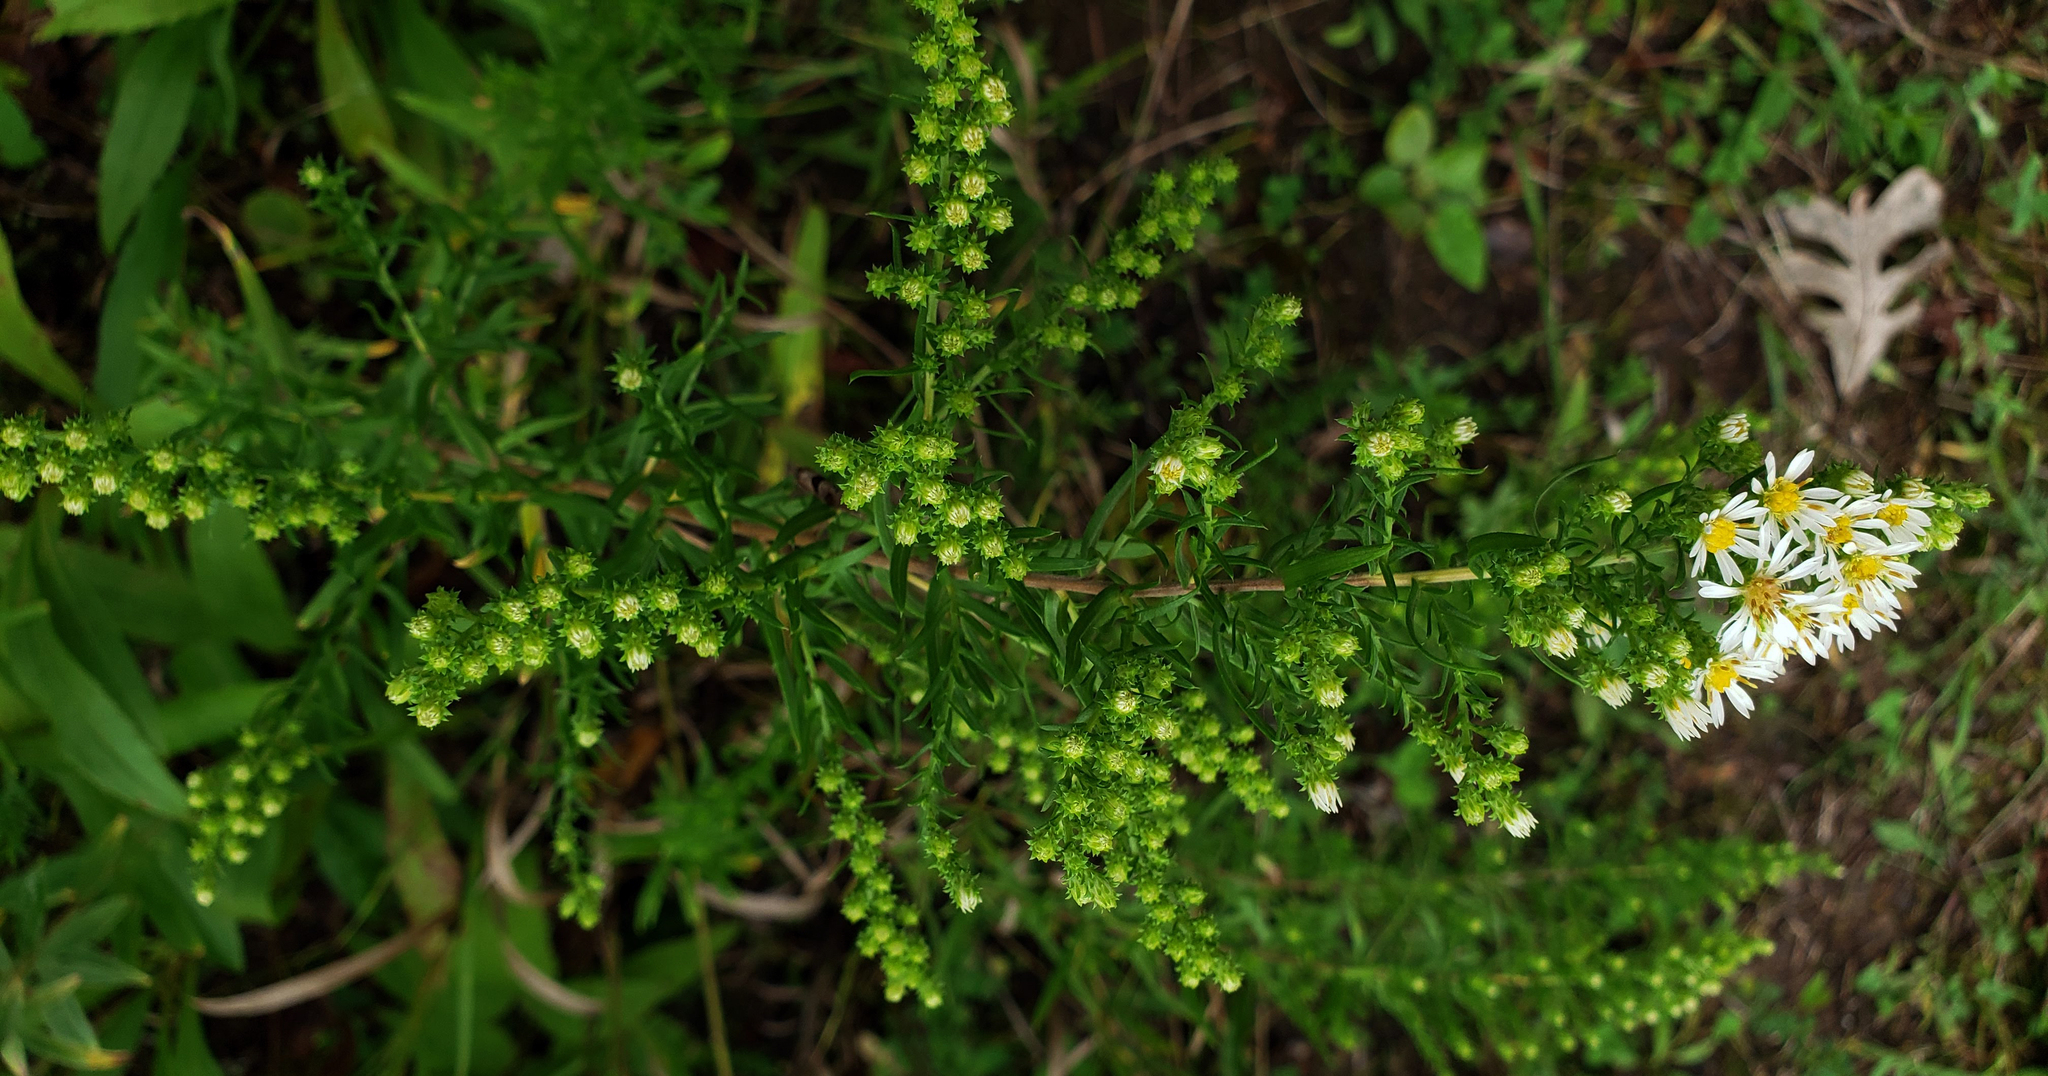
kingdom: Plantae
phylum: Tracheophyta
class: Magnoliopsida
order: Asterales
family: Asteraceae
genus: Symphyotrichum
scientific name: Symphyotrichum ericoides
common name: Heath aster
